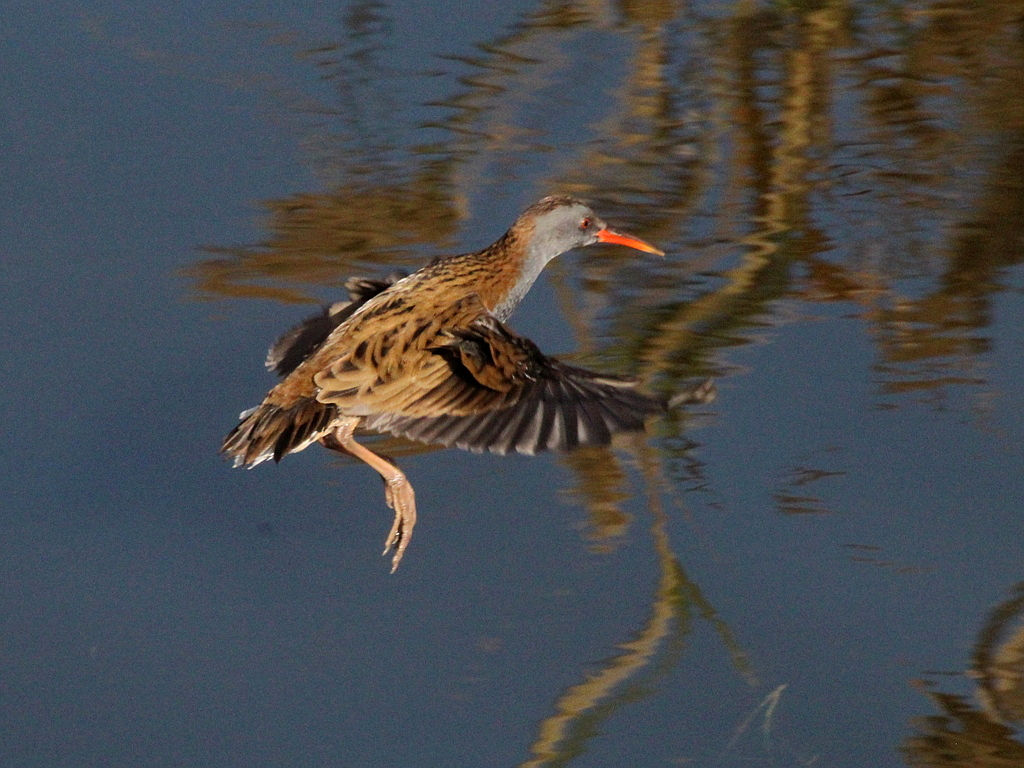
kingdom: Animalia
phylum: Chordata
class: Aves
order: Gruiformes
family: Rallidae
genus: Rallus
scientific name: Rallus aquaticus
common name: Water rail
